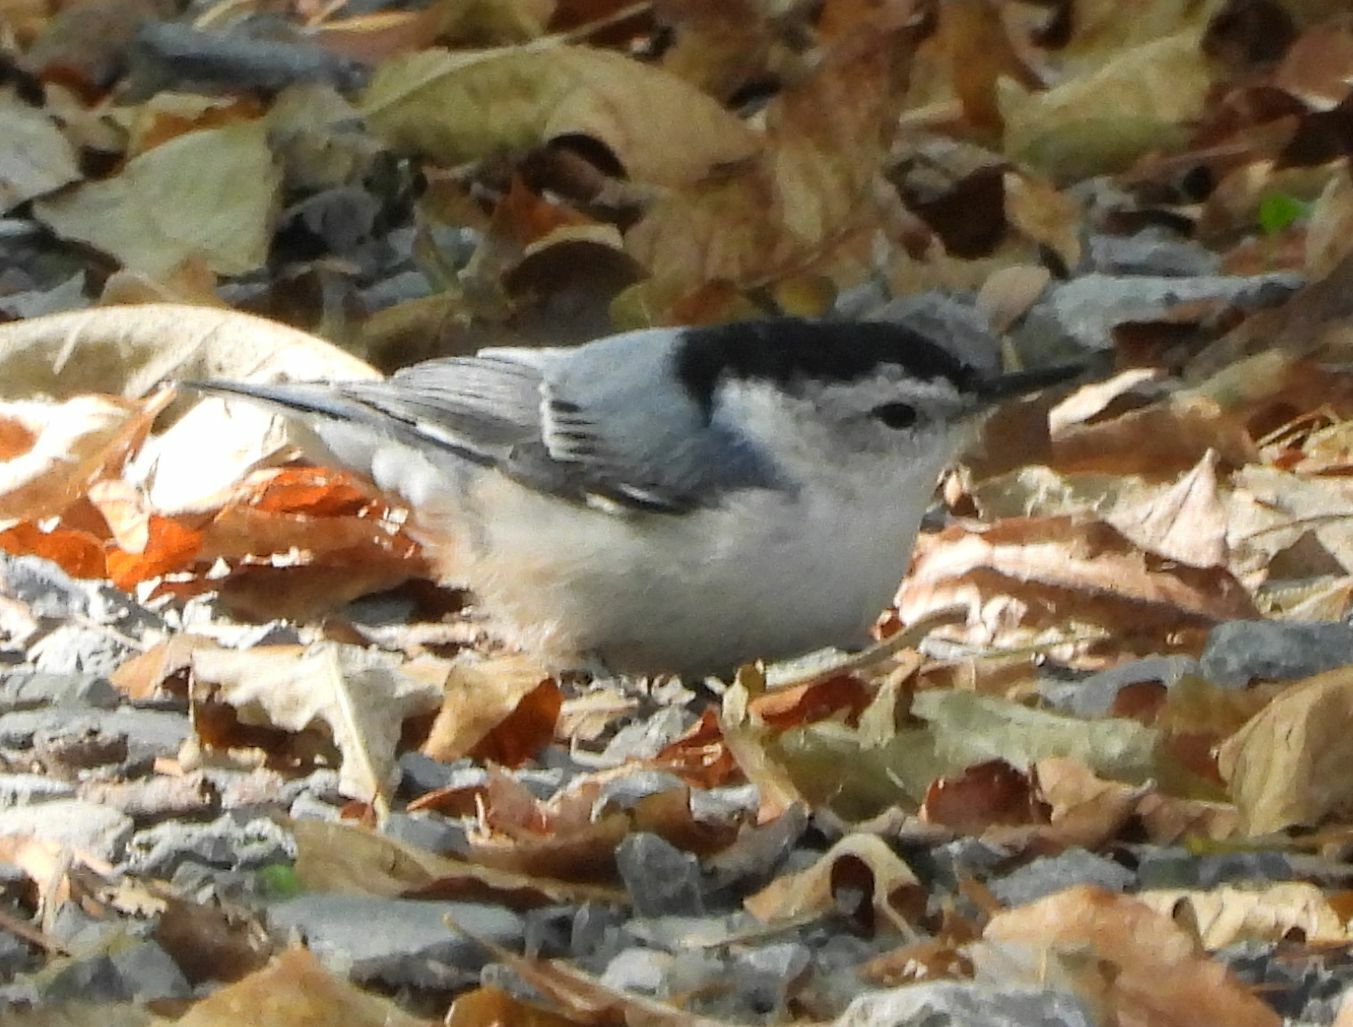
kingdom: Animalia
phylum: Chordata
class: Aves
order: Passeriformes
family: Sittidae
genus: Sitta
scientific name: Sitta carolinensis
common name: White-breasted nuthatch
